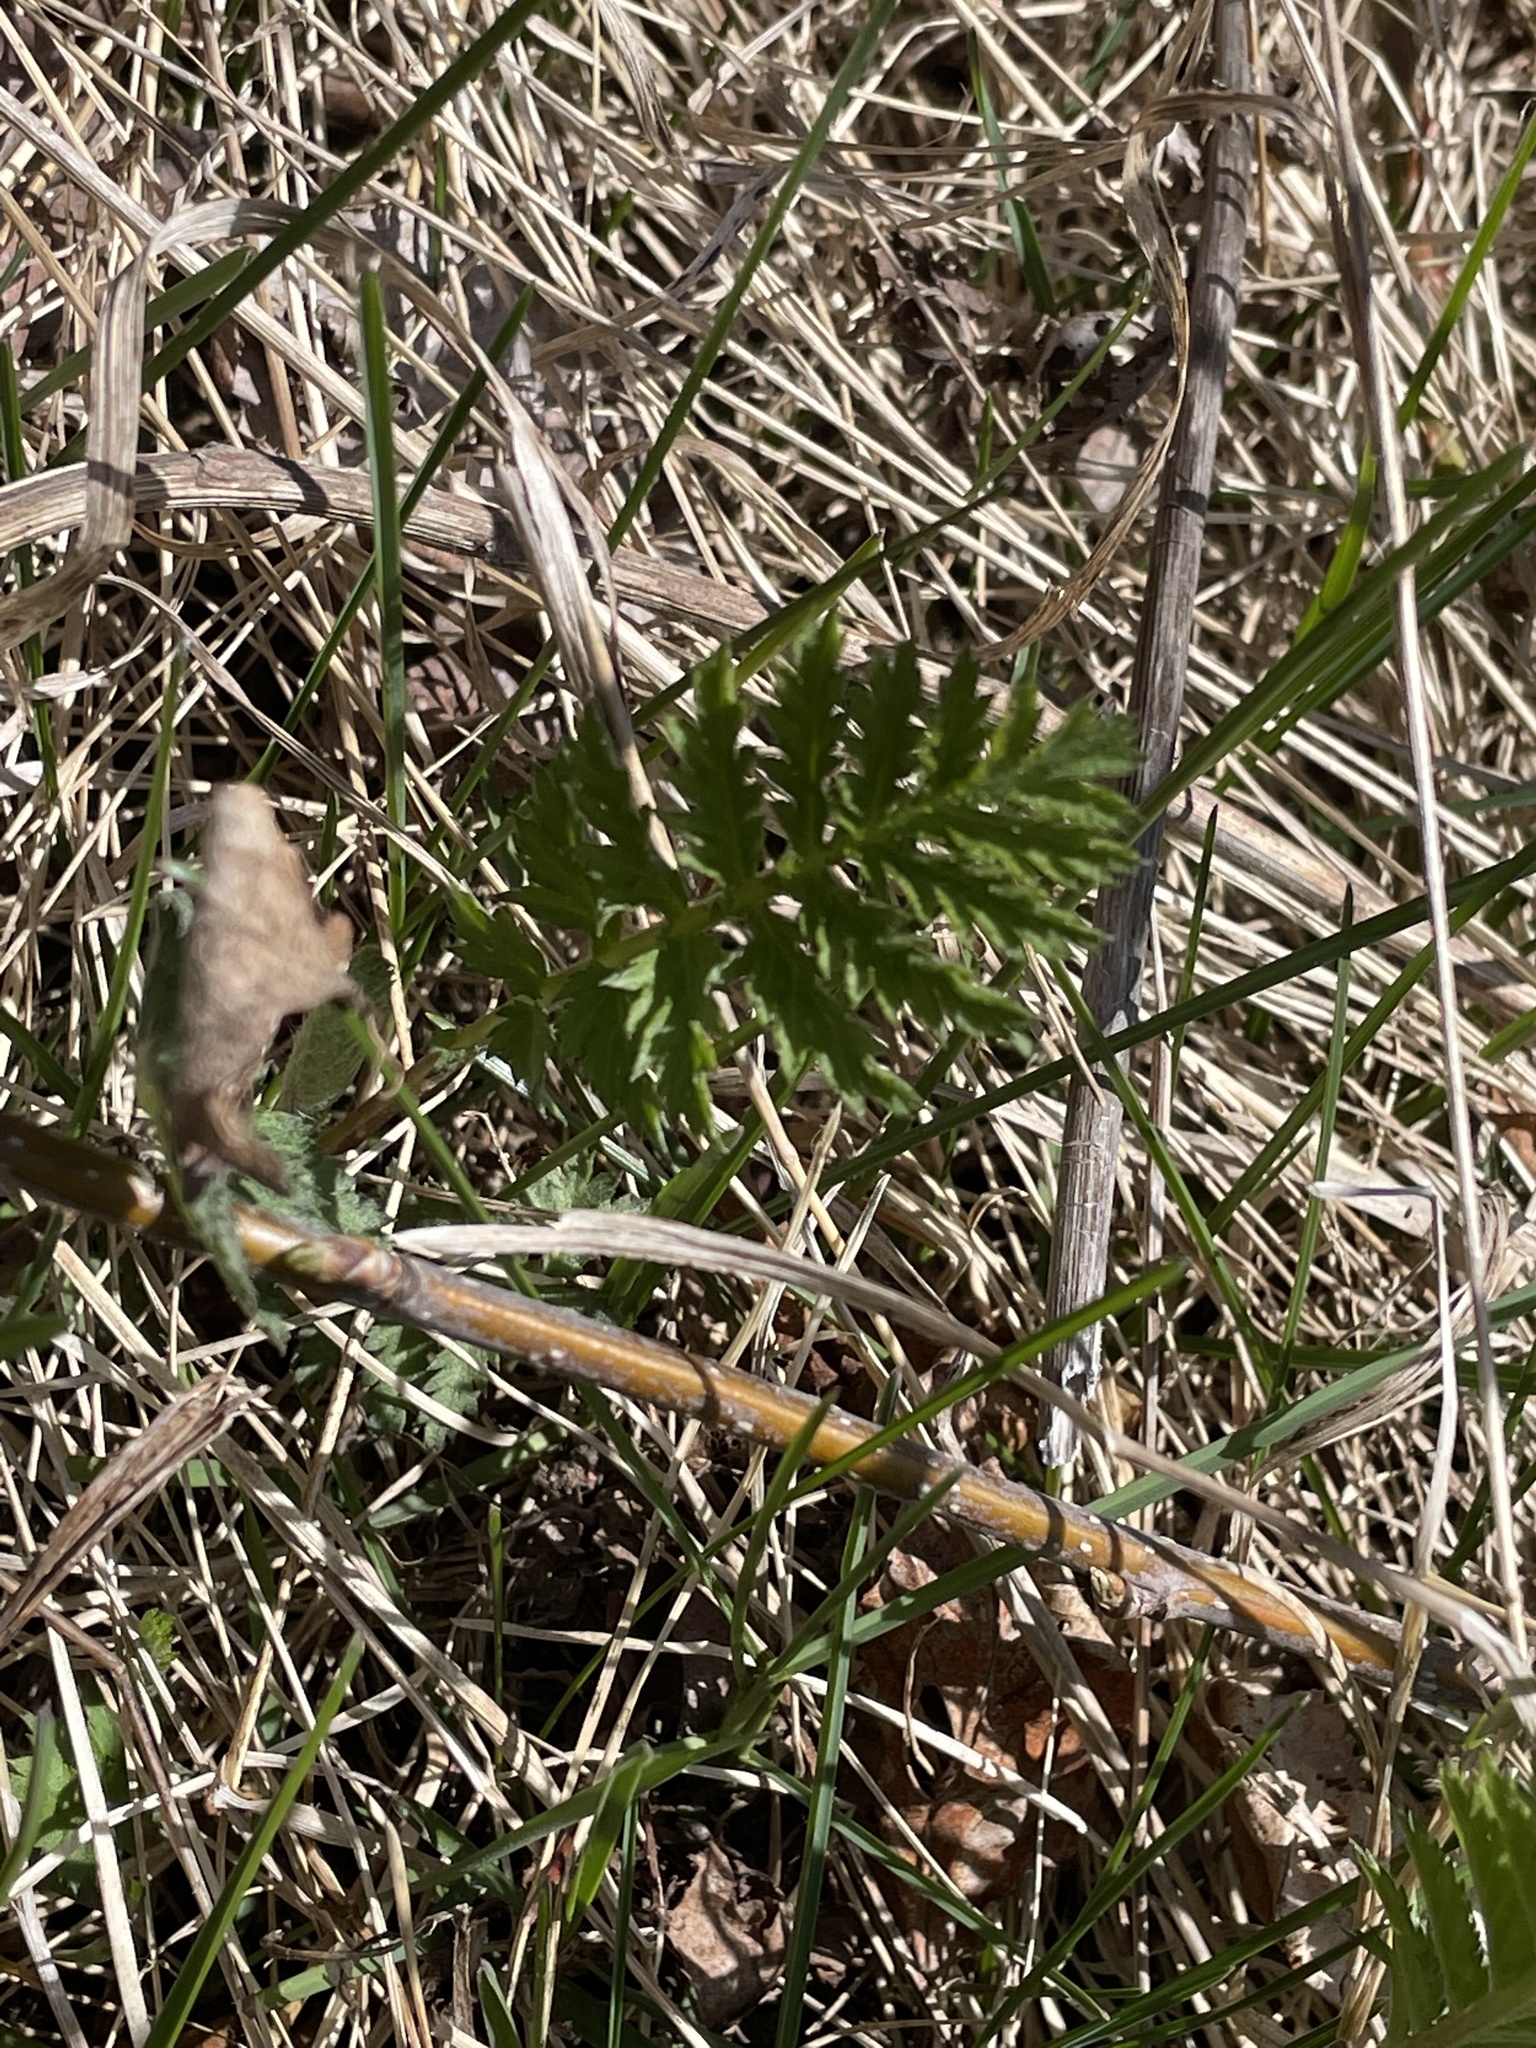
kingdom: Plantae
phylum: Tracheophyta
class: Magnoliopsida
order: Asterales
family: Asteraceae
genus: Tanacetum
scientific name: Tanacetum vulgare
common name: Common tansy
